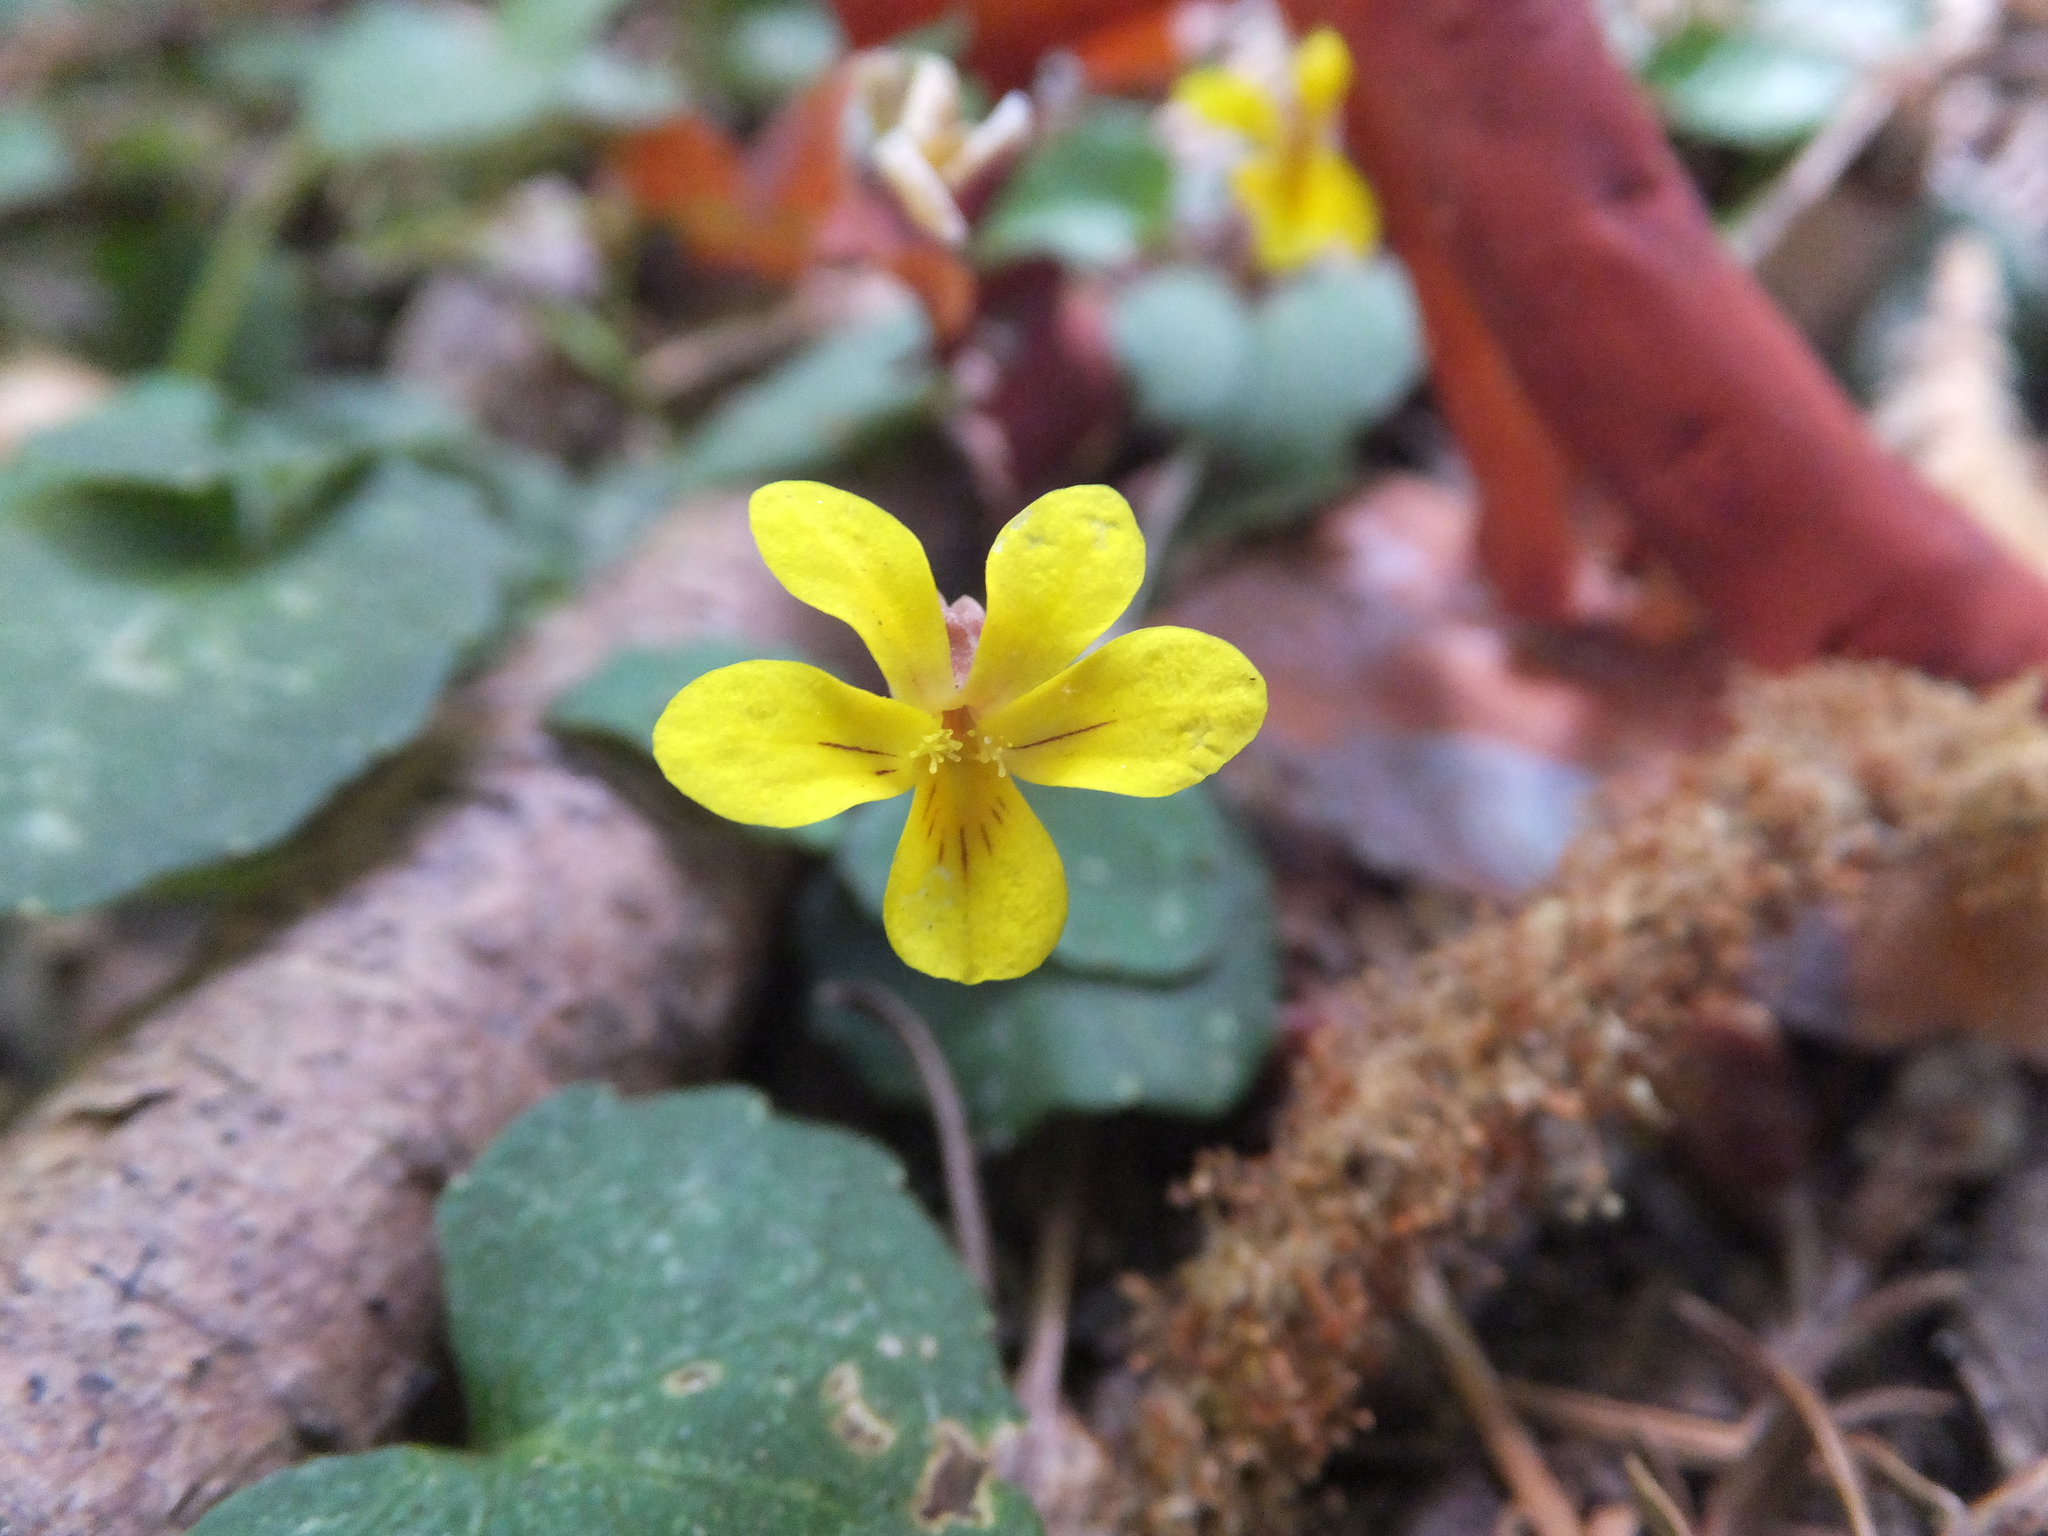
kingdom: Plantae
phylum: Tracheophyta
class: Magnoliopsida
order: Malpighiales
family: Violaceae
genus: Viola
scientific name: Viola sempervirens
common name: Evergreen violet
